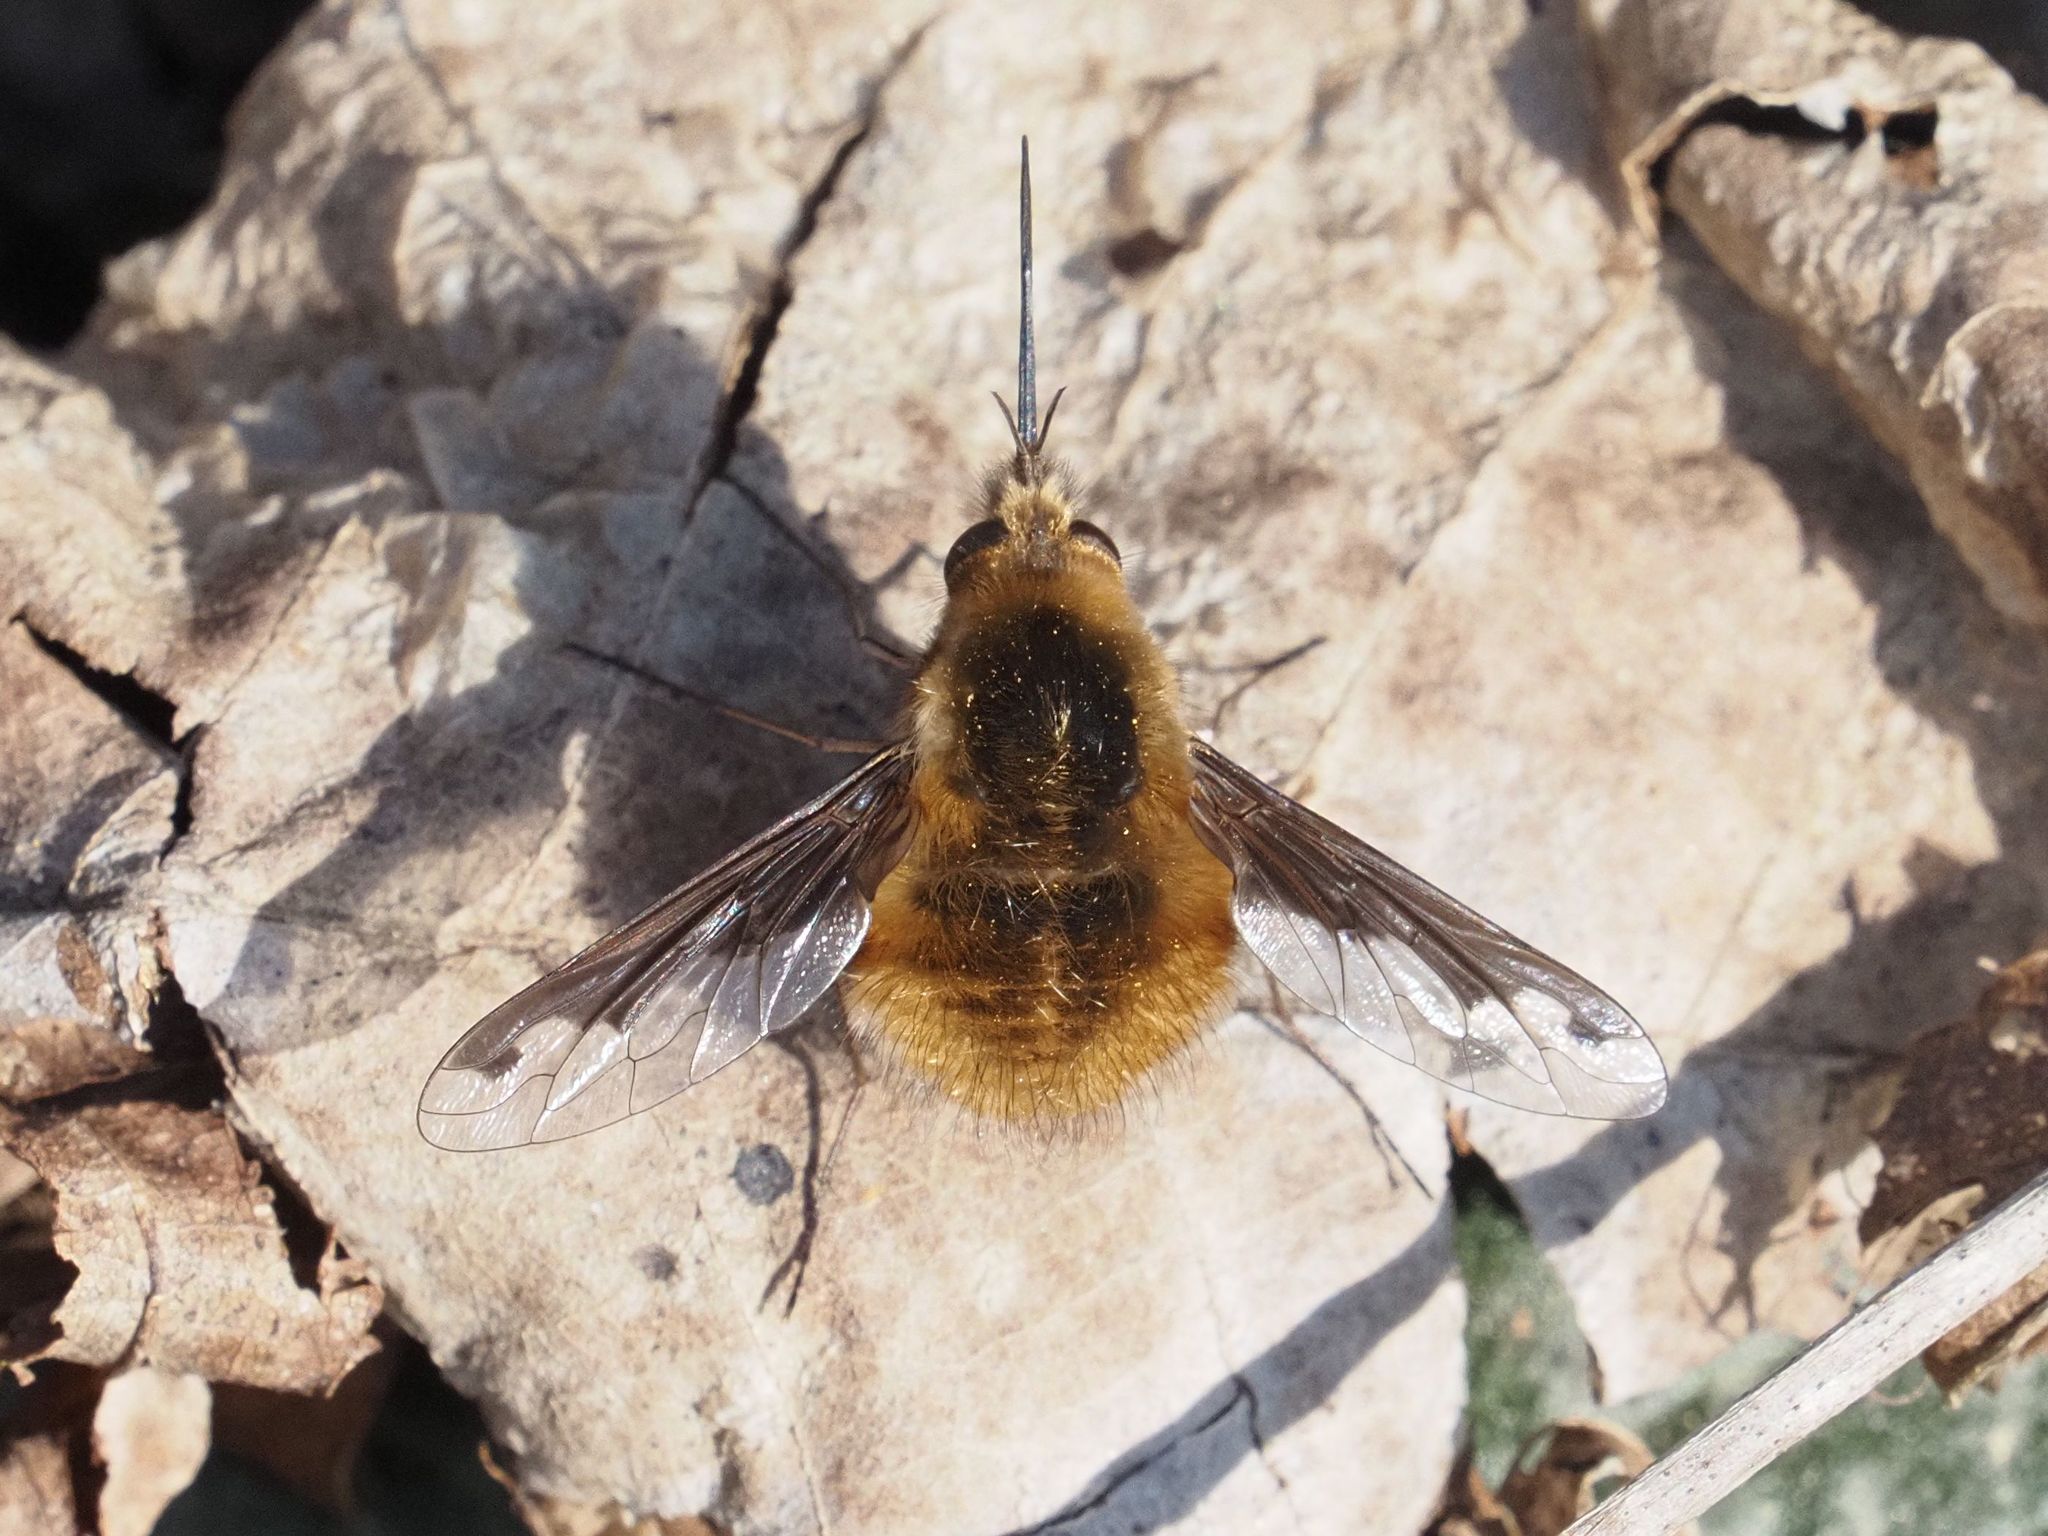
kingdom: Animalia
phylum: Arthropoda
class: Insecta
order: Diptera
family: Bombyliidae
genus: Bombylius
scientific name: Bombylius major
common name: Bee fly
